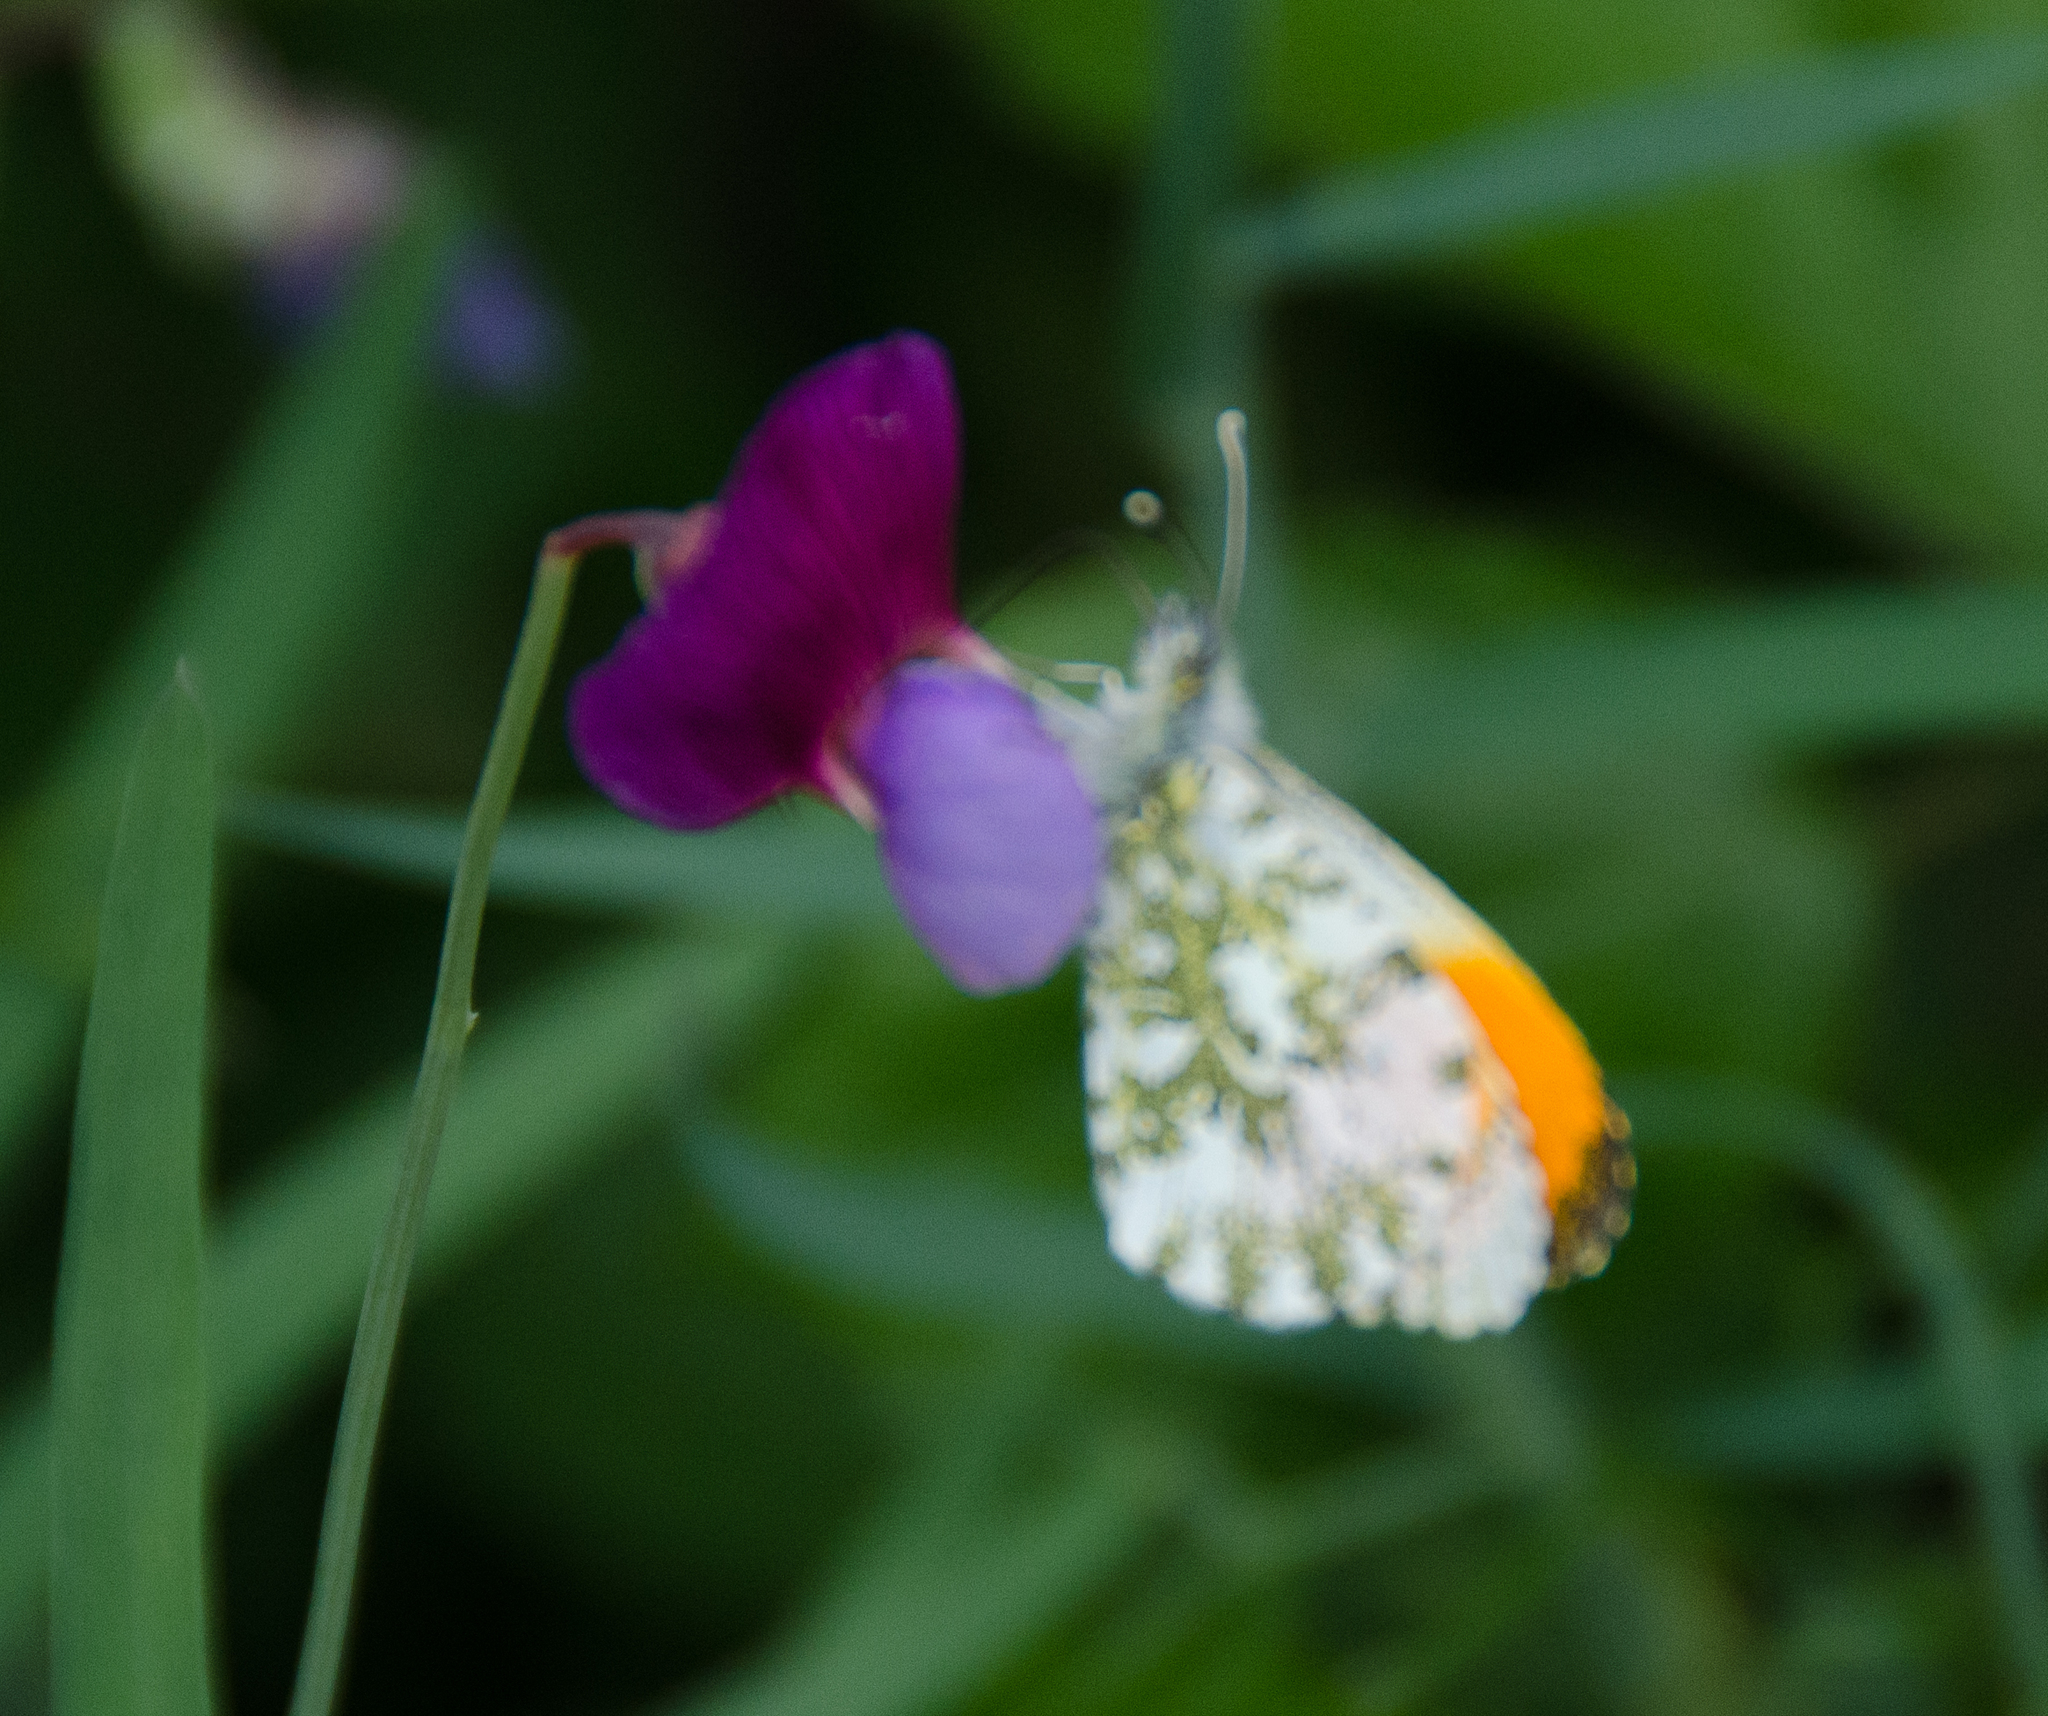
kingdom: Animalia
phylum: Arthropoda
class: Insecta
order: Lepidoptera
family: Pieridae
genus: Anthocharis
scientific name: Anthocharis cardamines
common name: Orange-tip
